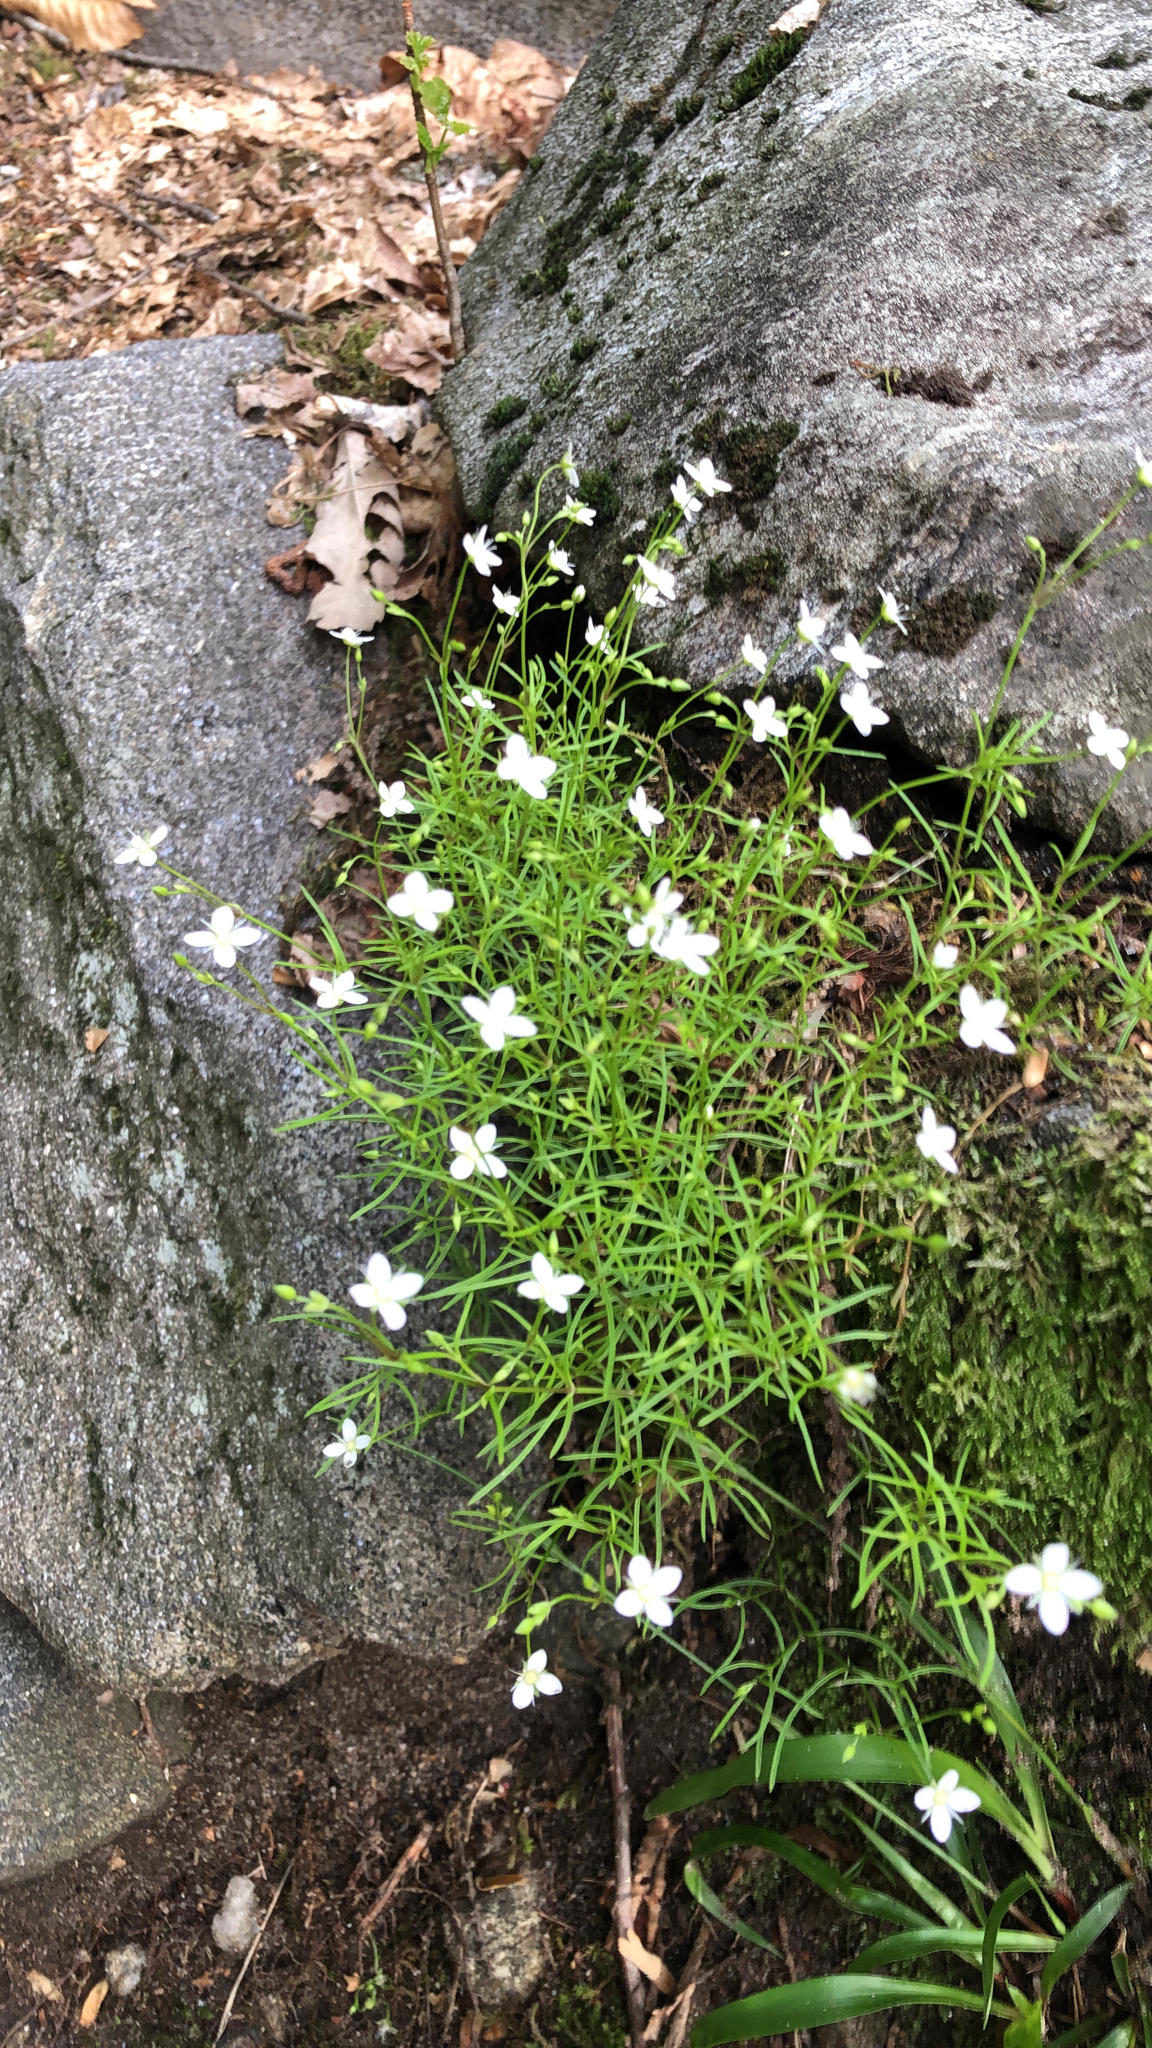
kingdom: Plantae
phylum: Tracheophyta
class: Magnoliopsida
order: Caryophyllales
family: Caryophyllaceae
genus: Moehringia
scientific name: Moehringia muscosa
